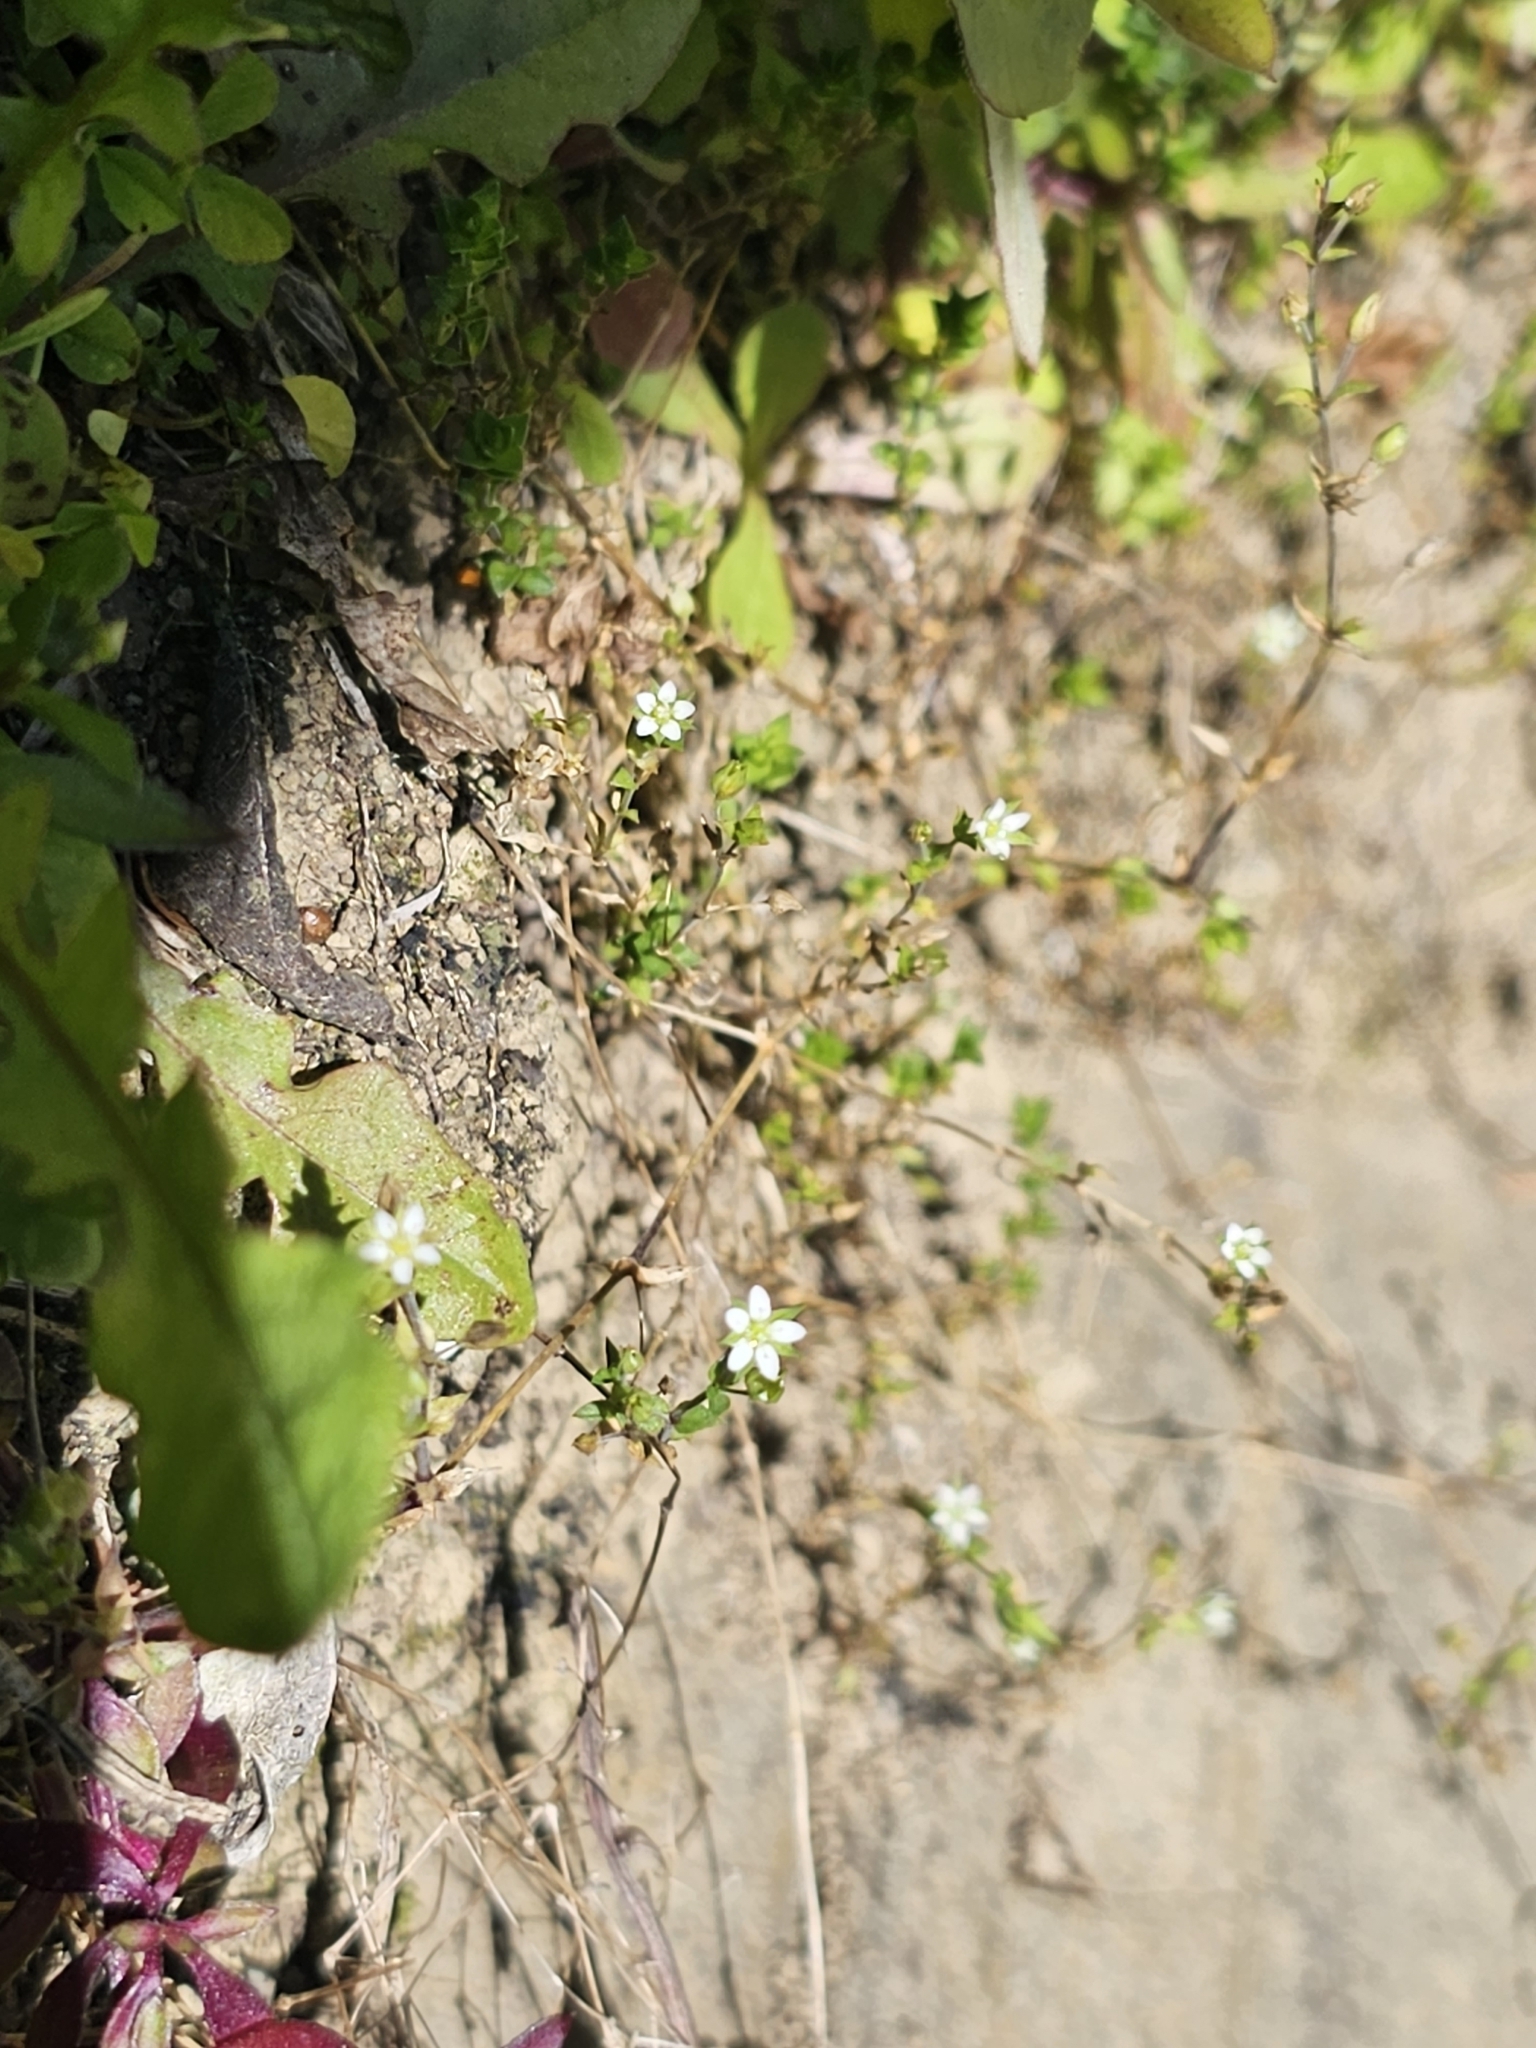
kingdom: Plantae
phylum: Tracheophyta
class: Magnoliopsida
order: Caryophyllales
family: Caryophyllaceae
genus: Arenaria
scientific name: Arenaria serpyllifolia
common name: Thyme-leaved sandwort
